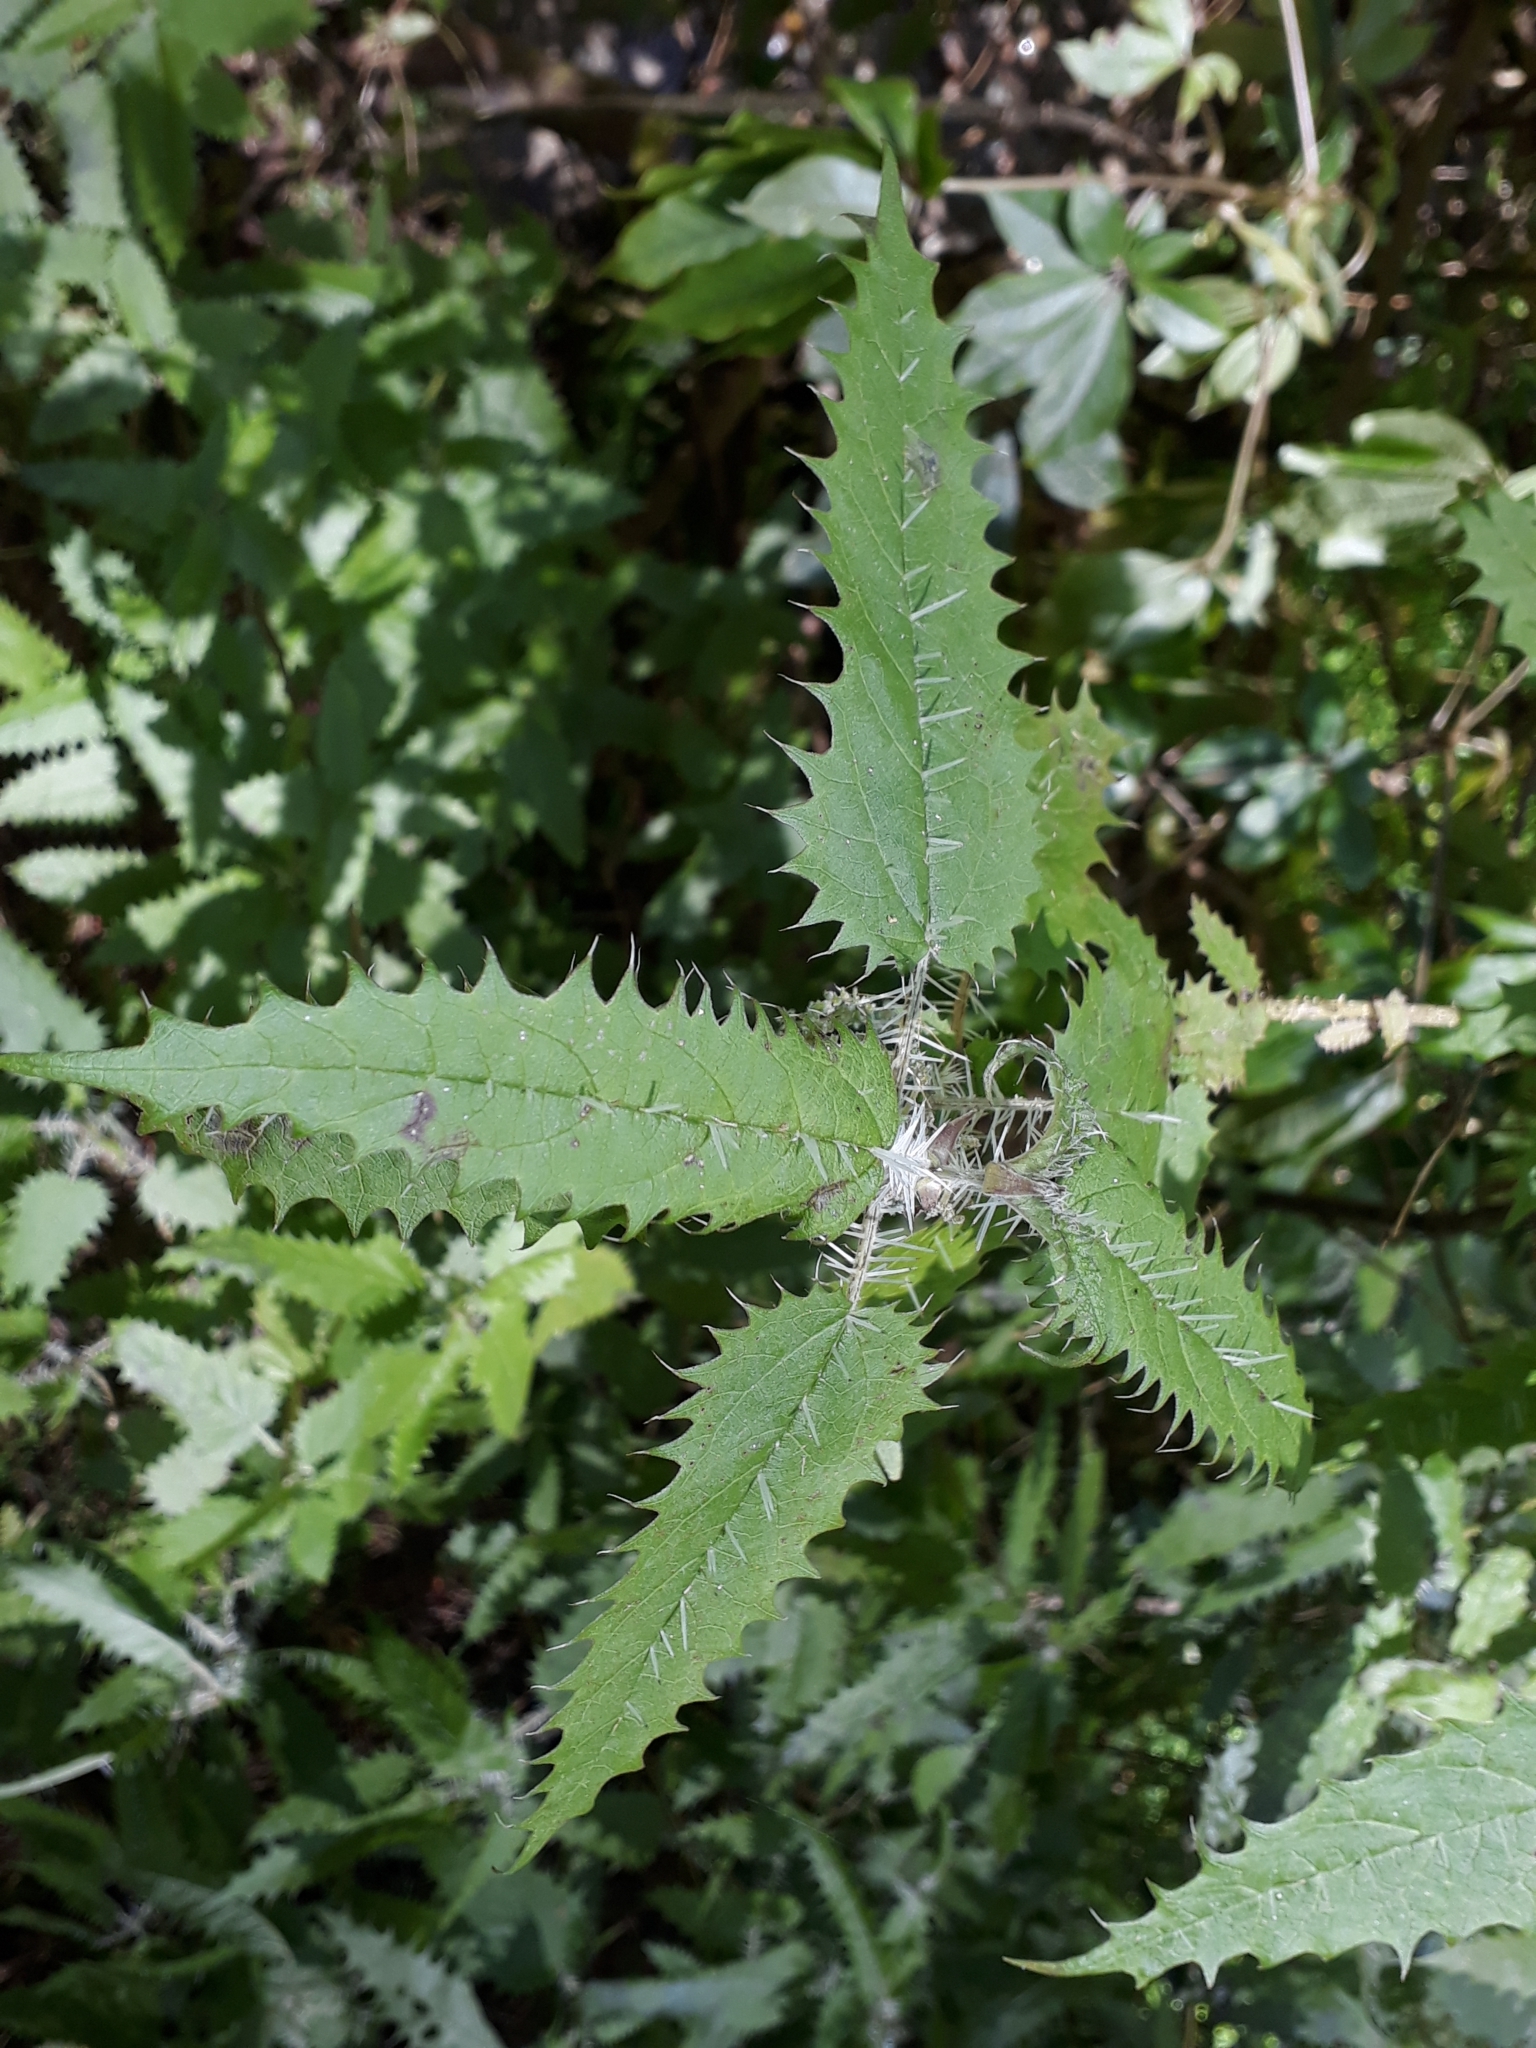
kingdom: Plantae
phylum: Tracheophyta
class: Magnoliopsida
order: Rosales
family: Urticaceae
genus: Urtica
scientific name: Urtica ferox
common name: Tree nettle
